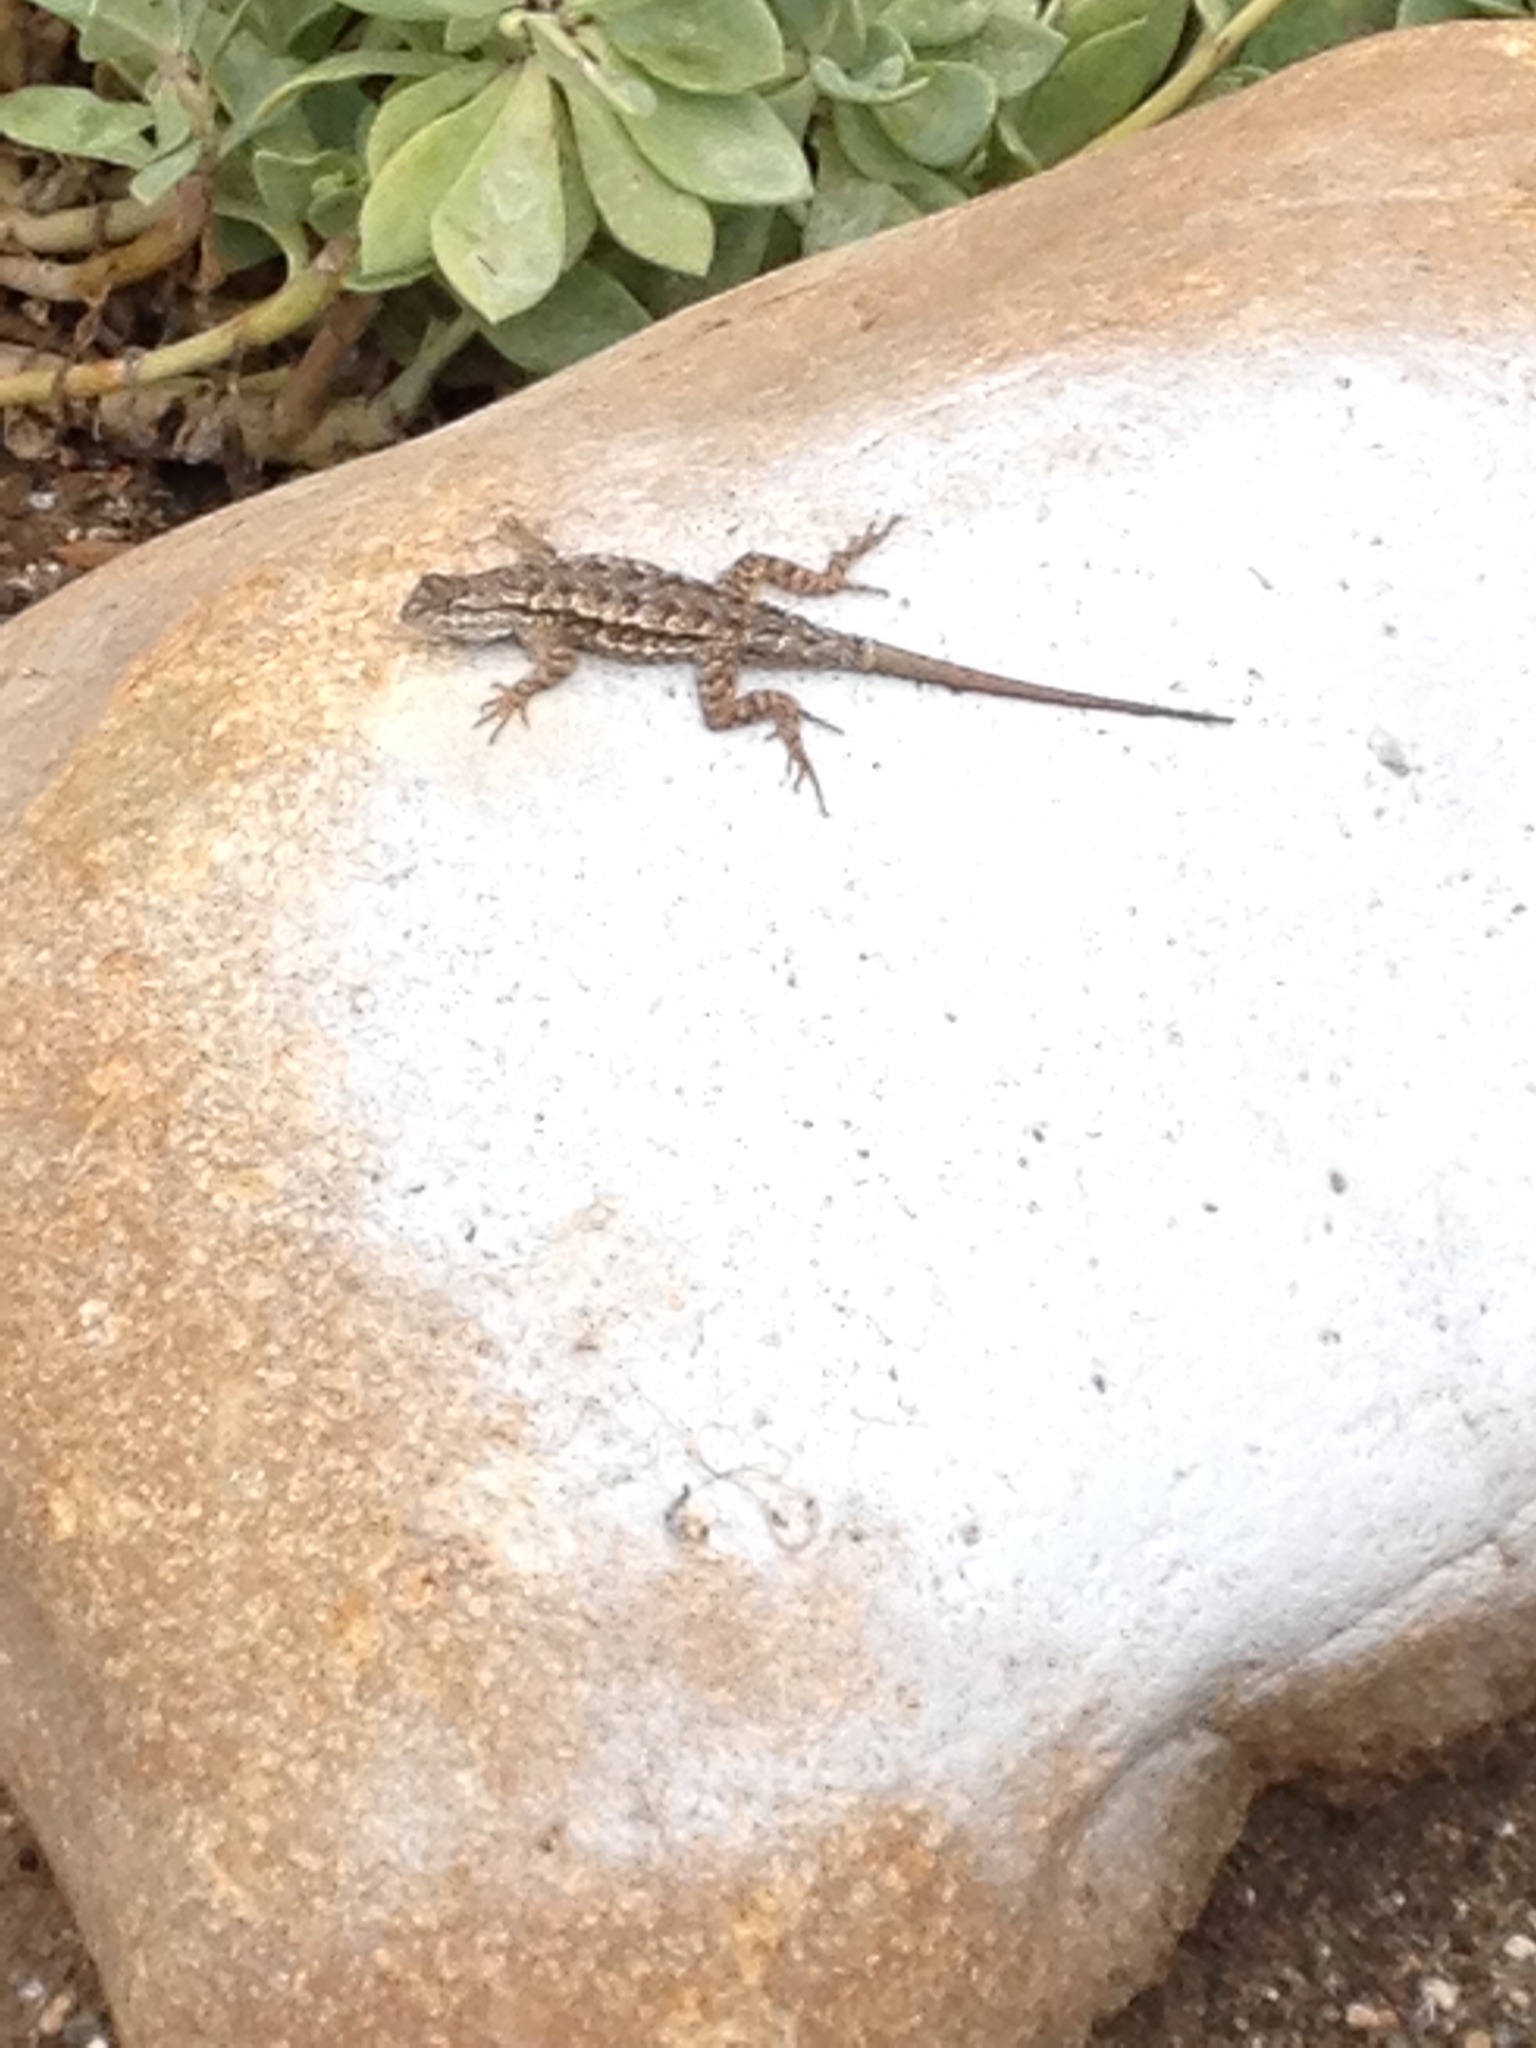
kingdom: Animalia
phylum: Chordata
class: Squamata
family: Phrynosomatidae
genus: Sceloporus
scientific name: Sceloporus occidentalis
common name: Western fence lizard
